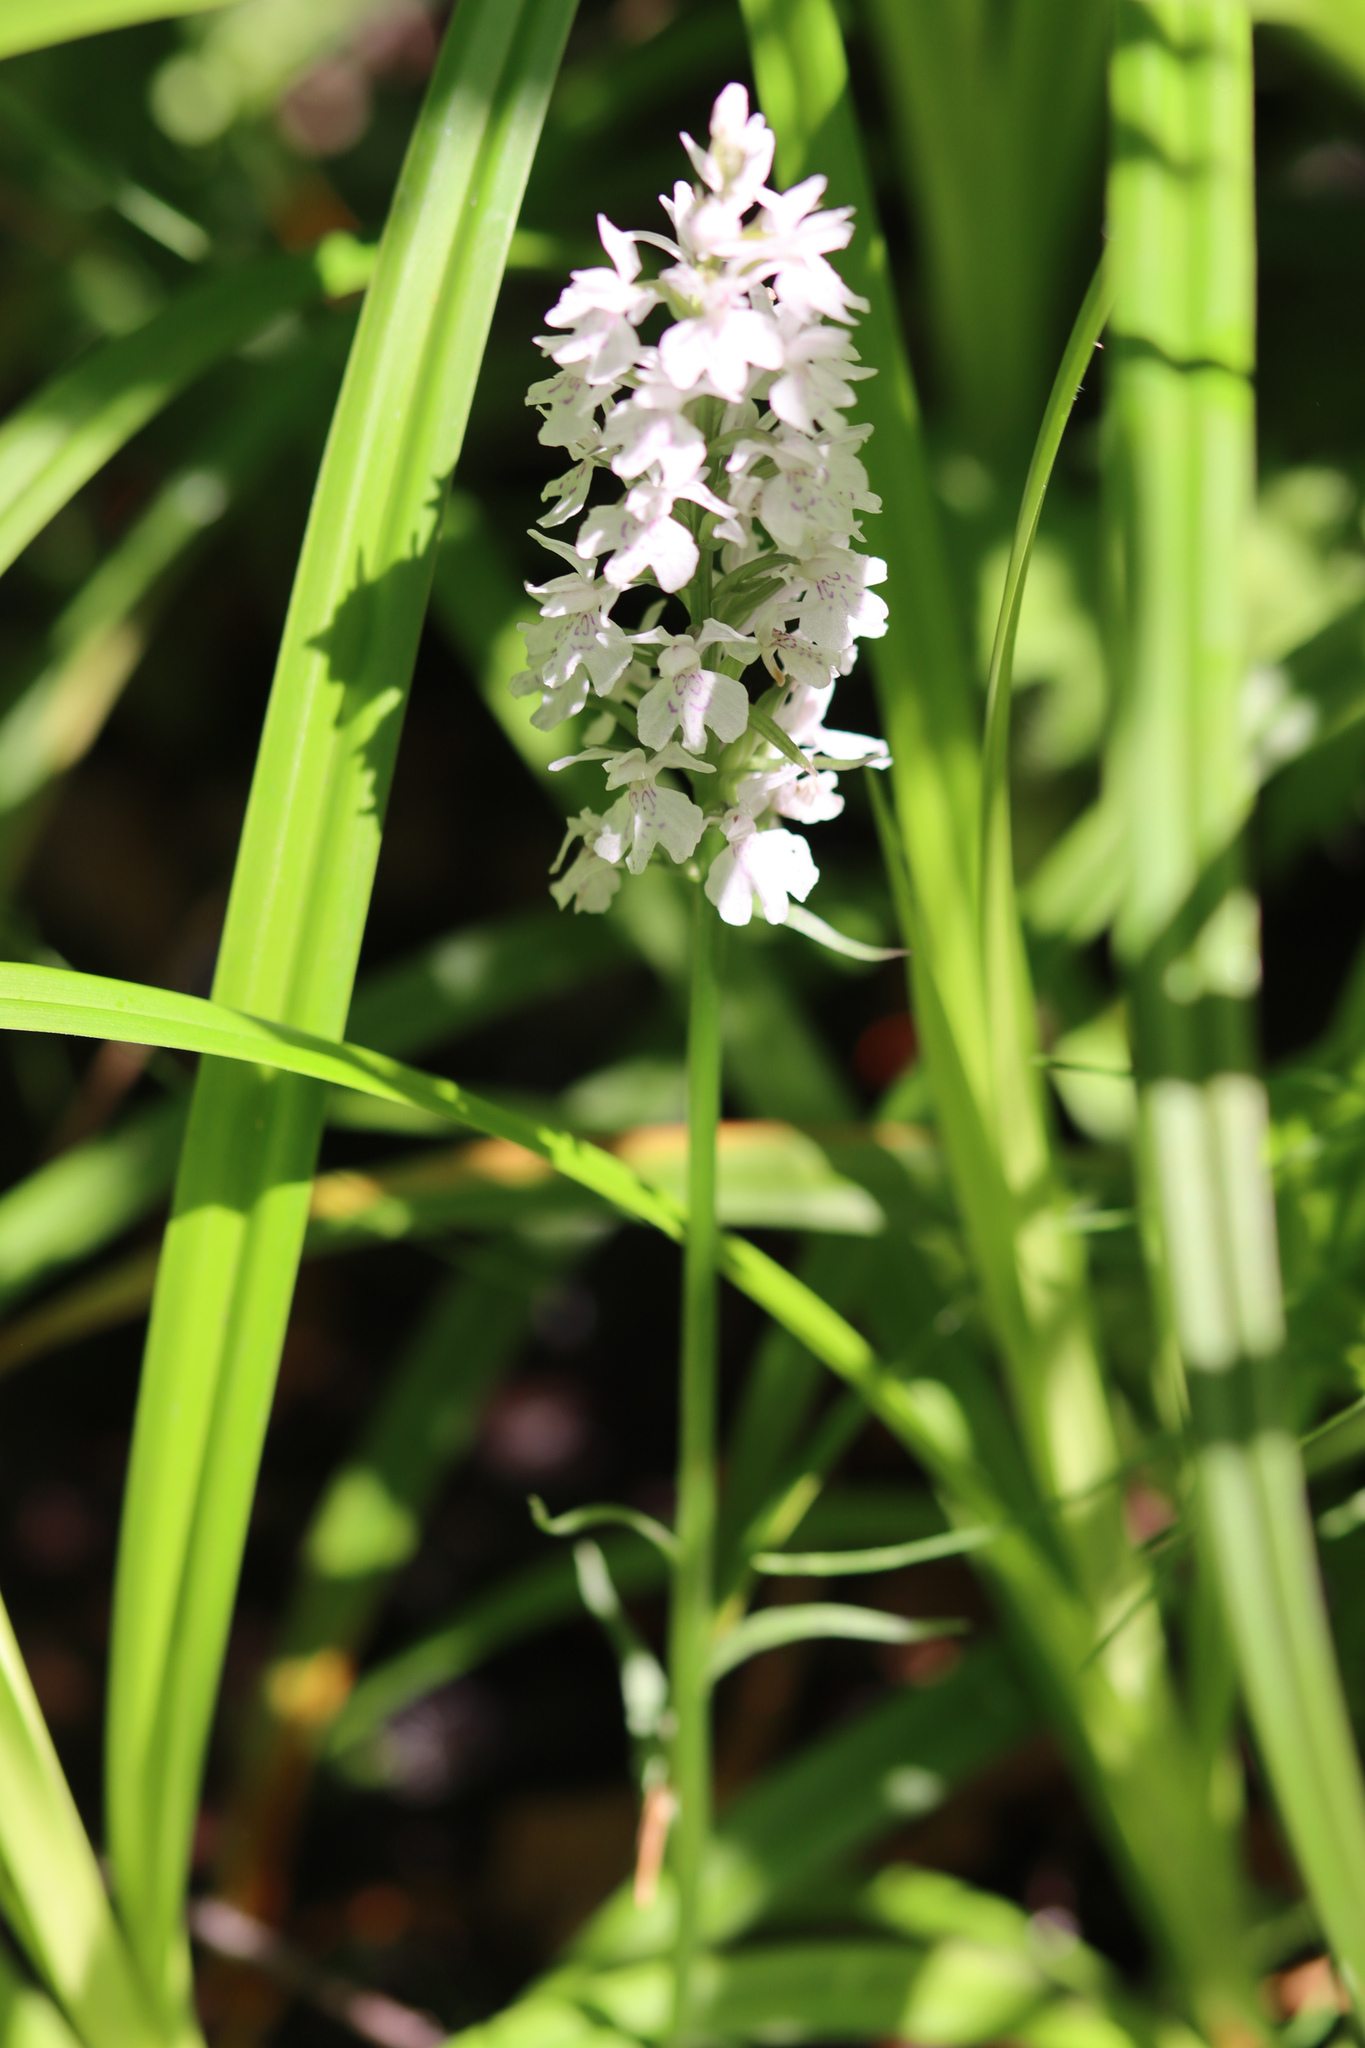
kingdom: Plantae
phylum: Tracheophyta
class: Liliopsida
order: Asparagales
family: Orchidaceae
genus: Dactylorhiza
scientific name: Dactylorhiza maculata
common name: Heath spotted-orchid
